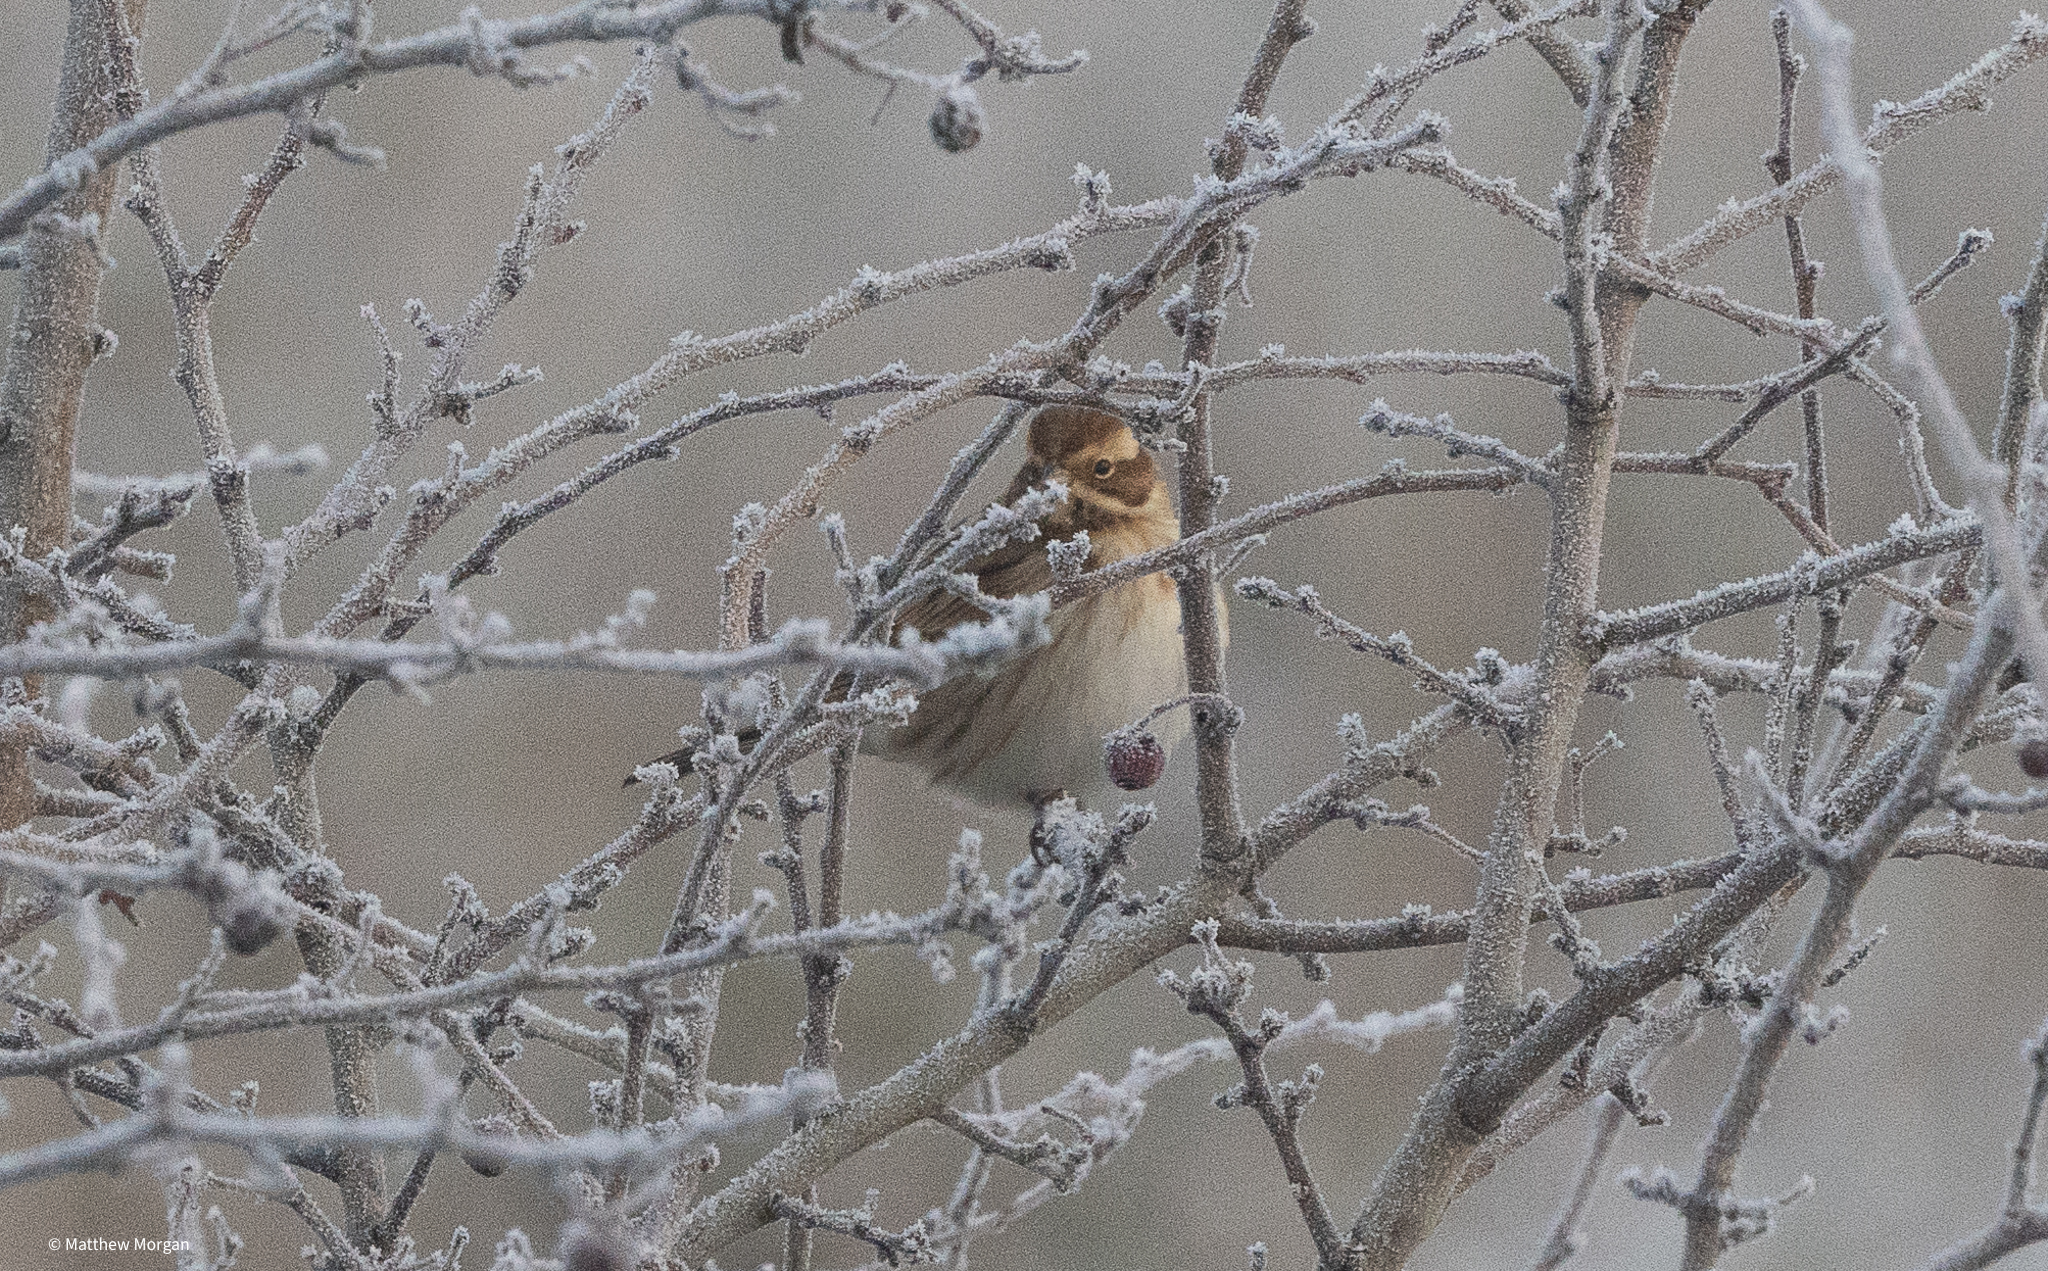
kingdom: Animalia
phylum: Chordata
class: Aves
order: Passeriformes
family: Emberizidae
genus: Emberiza
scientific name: Emberiza schoeniclus
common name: Reed bunting
